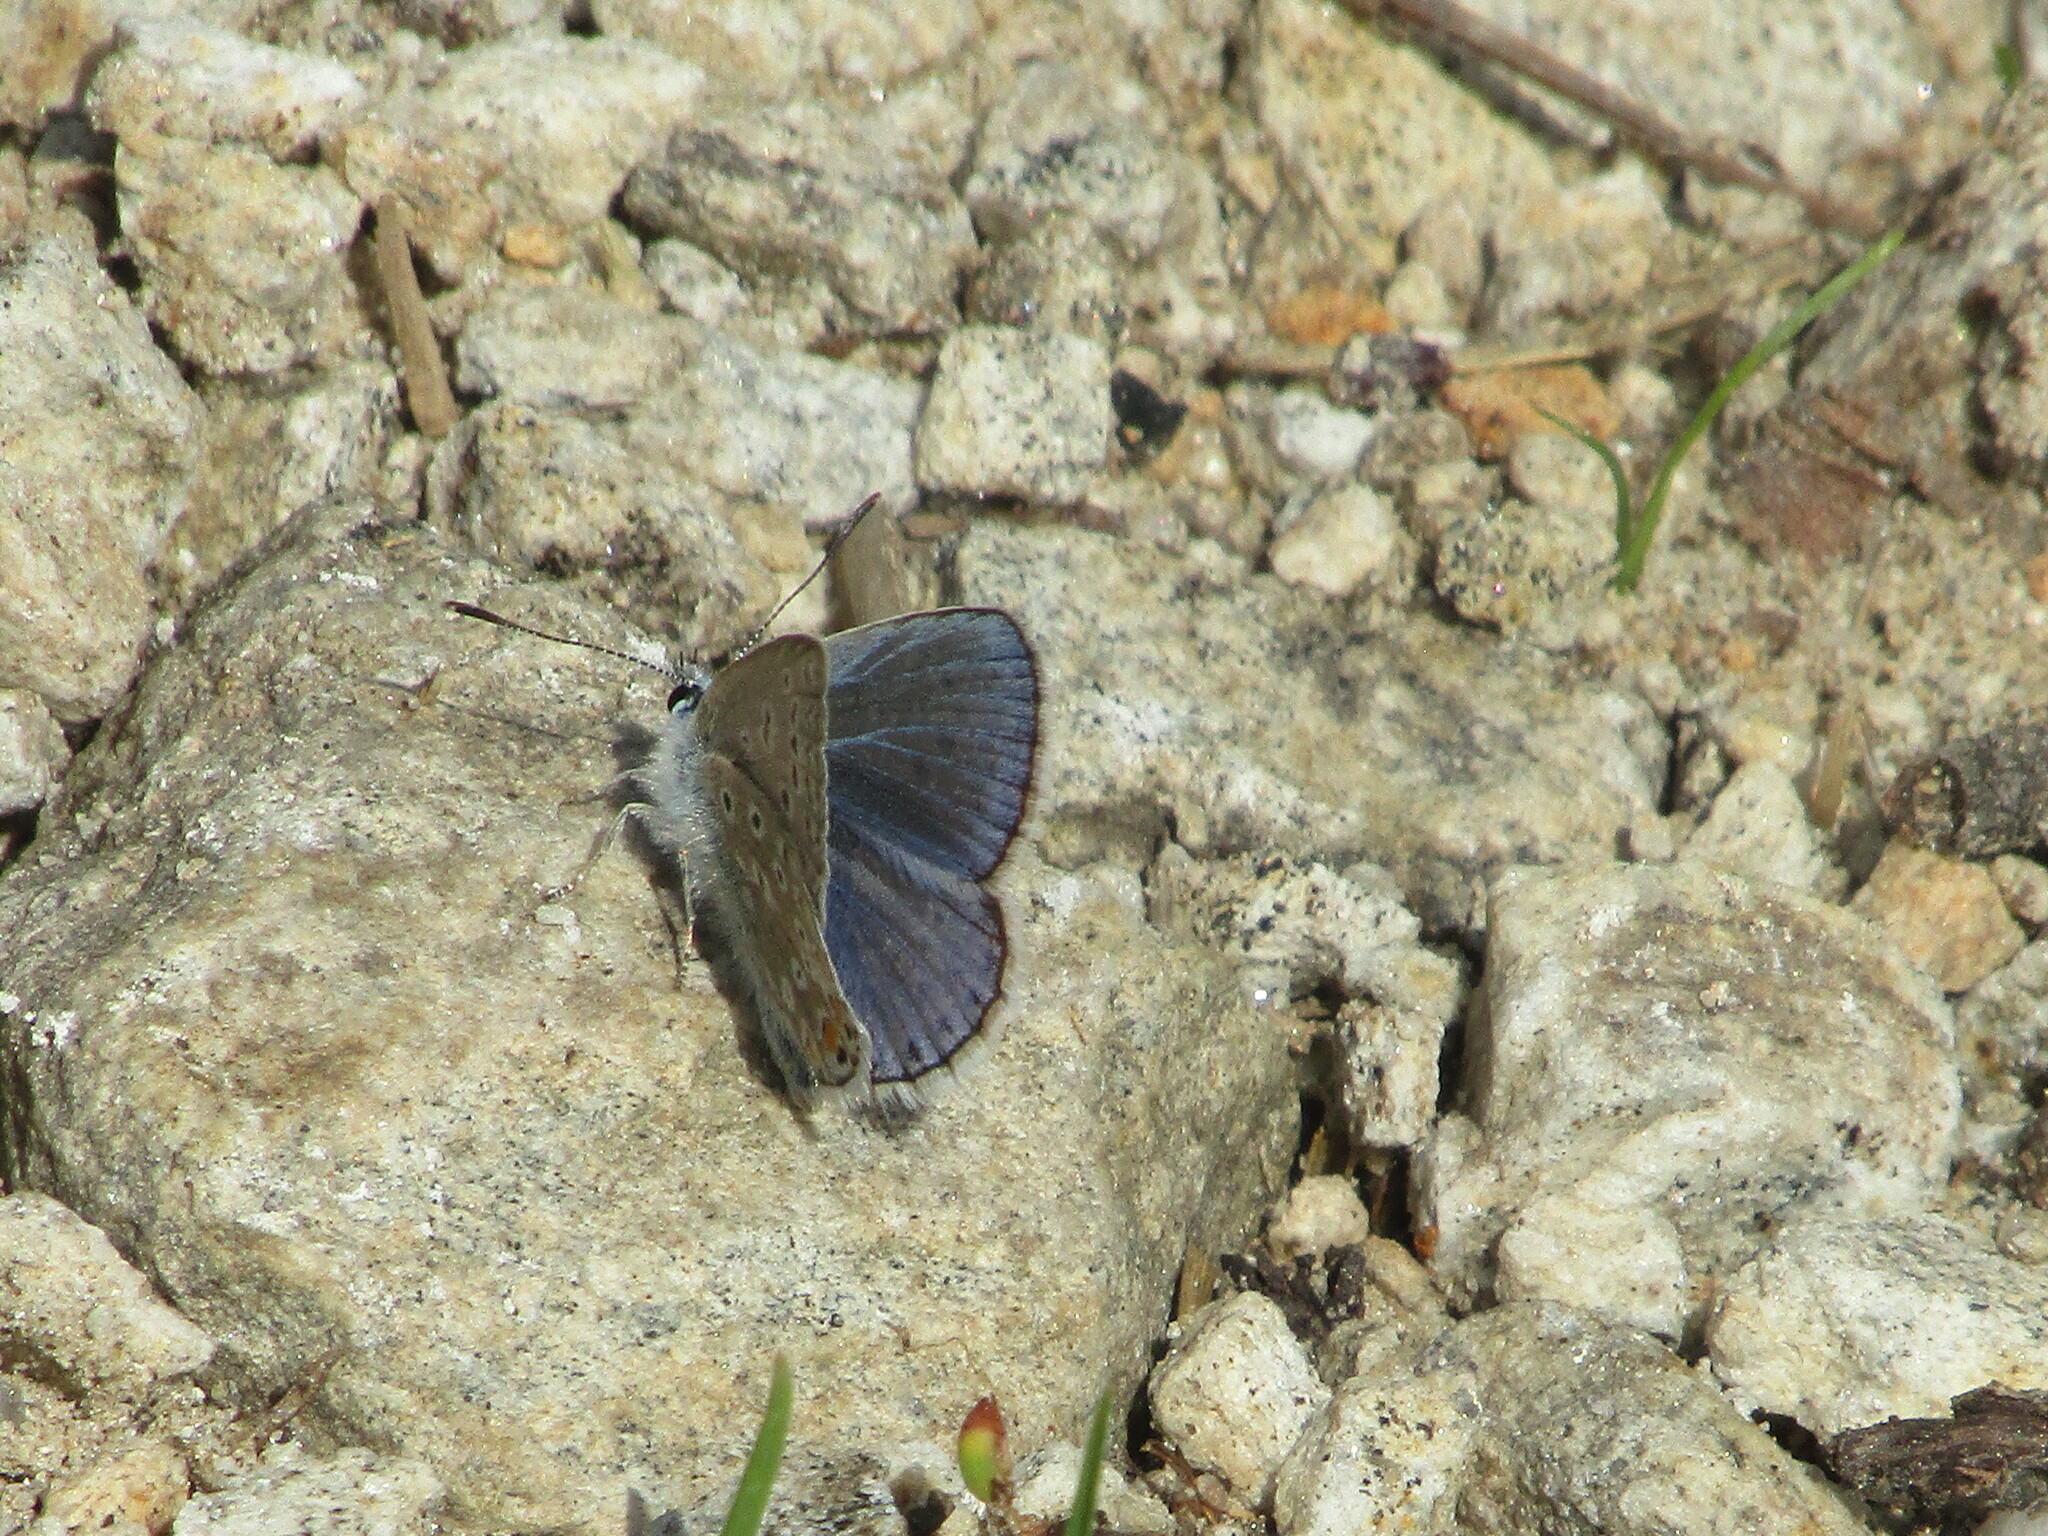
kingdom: Animalia
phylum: Arthropoda
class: Insecta
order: Lepidoptera
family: Lycaenidae
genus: Polyommatus
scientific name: Polyommatus icarus
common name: Common blue
